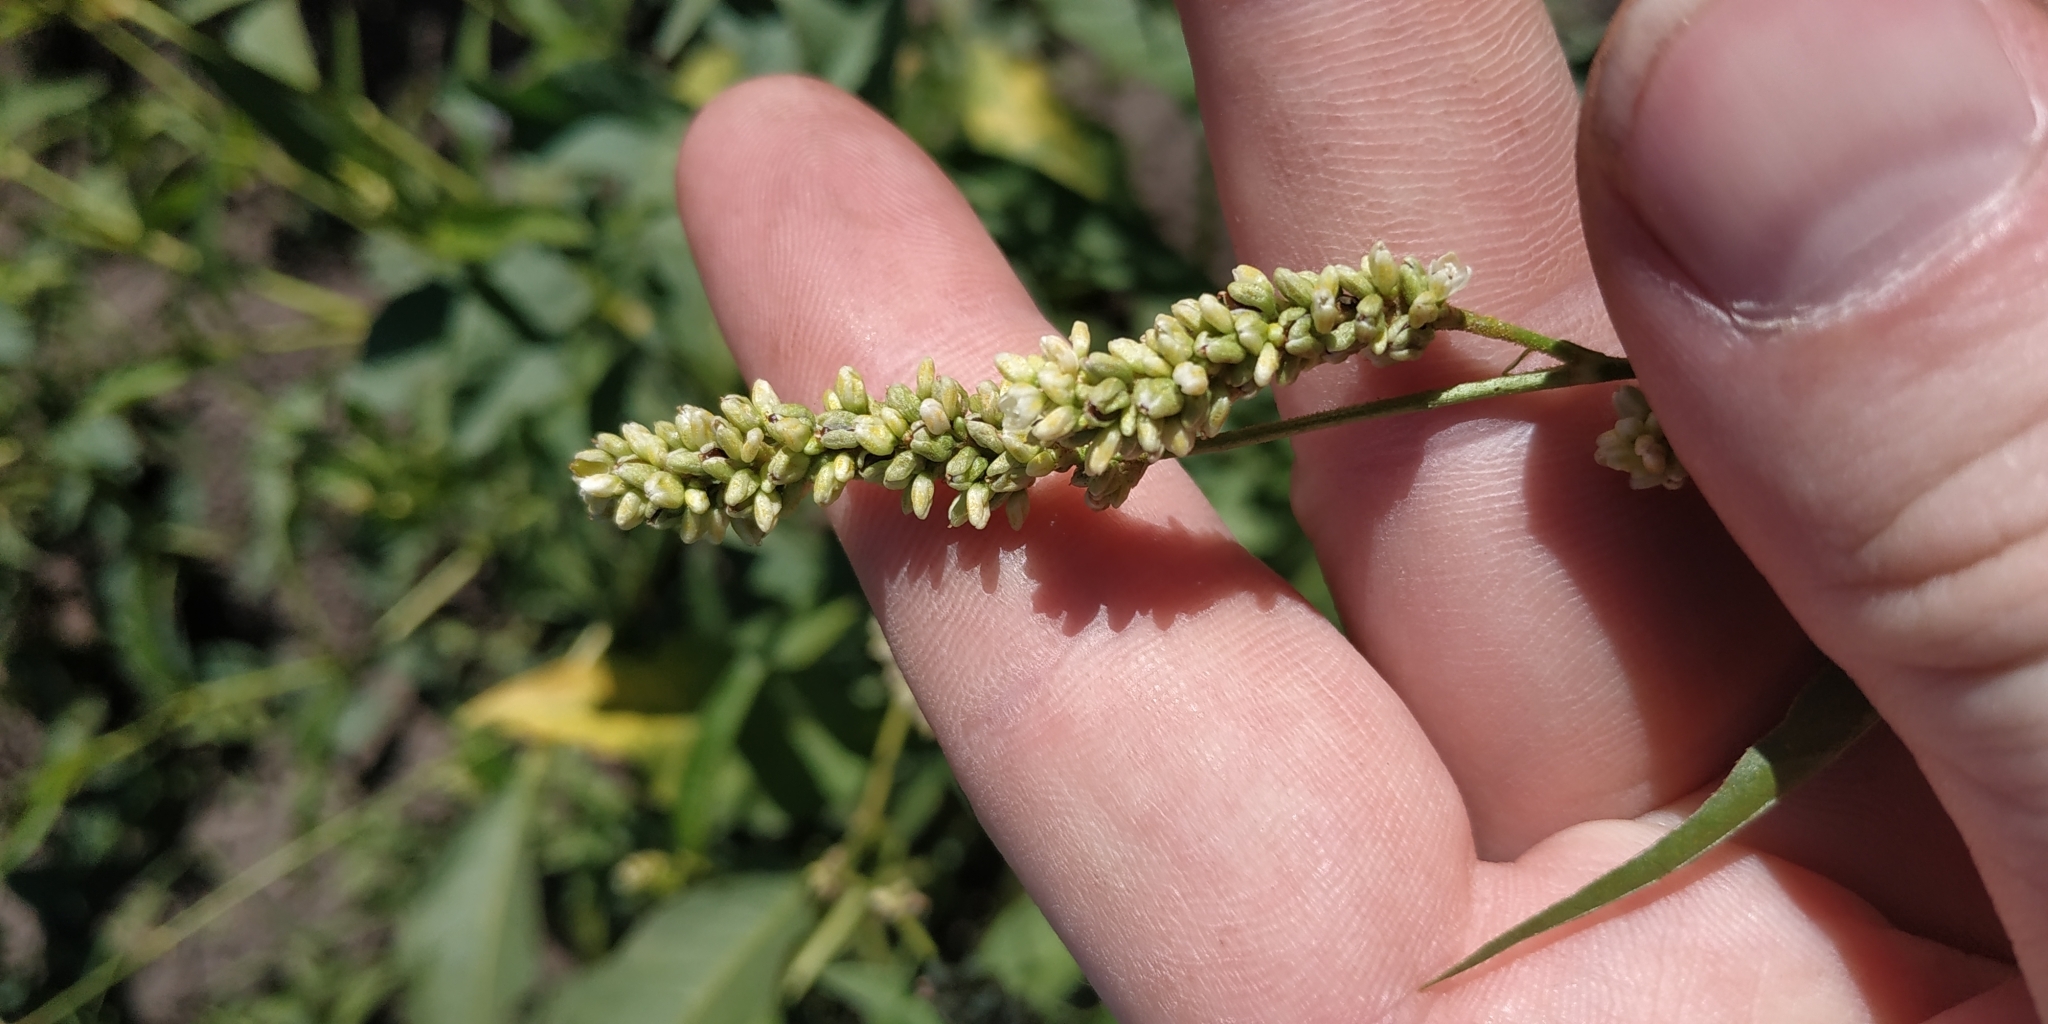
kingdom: Plantae
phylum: Tracheophyta
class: Magnoliopsida
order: Caryophyllales
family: Polygonaceae
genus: Persicaria
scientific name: Persicaria lapathifolia
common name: Curlytop knotweed
